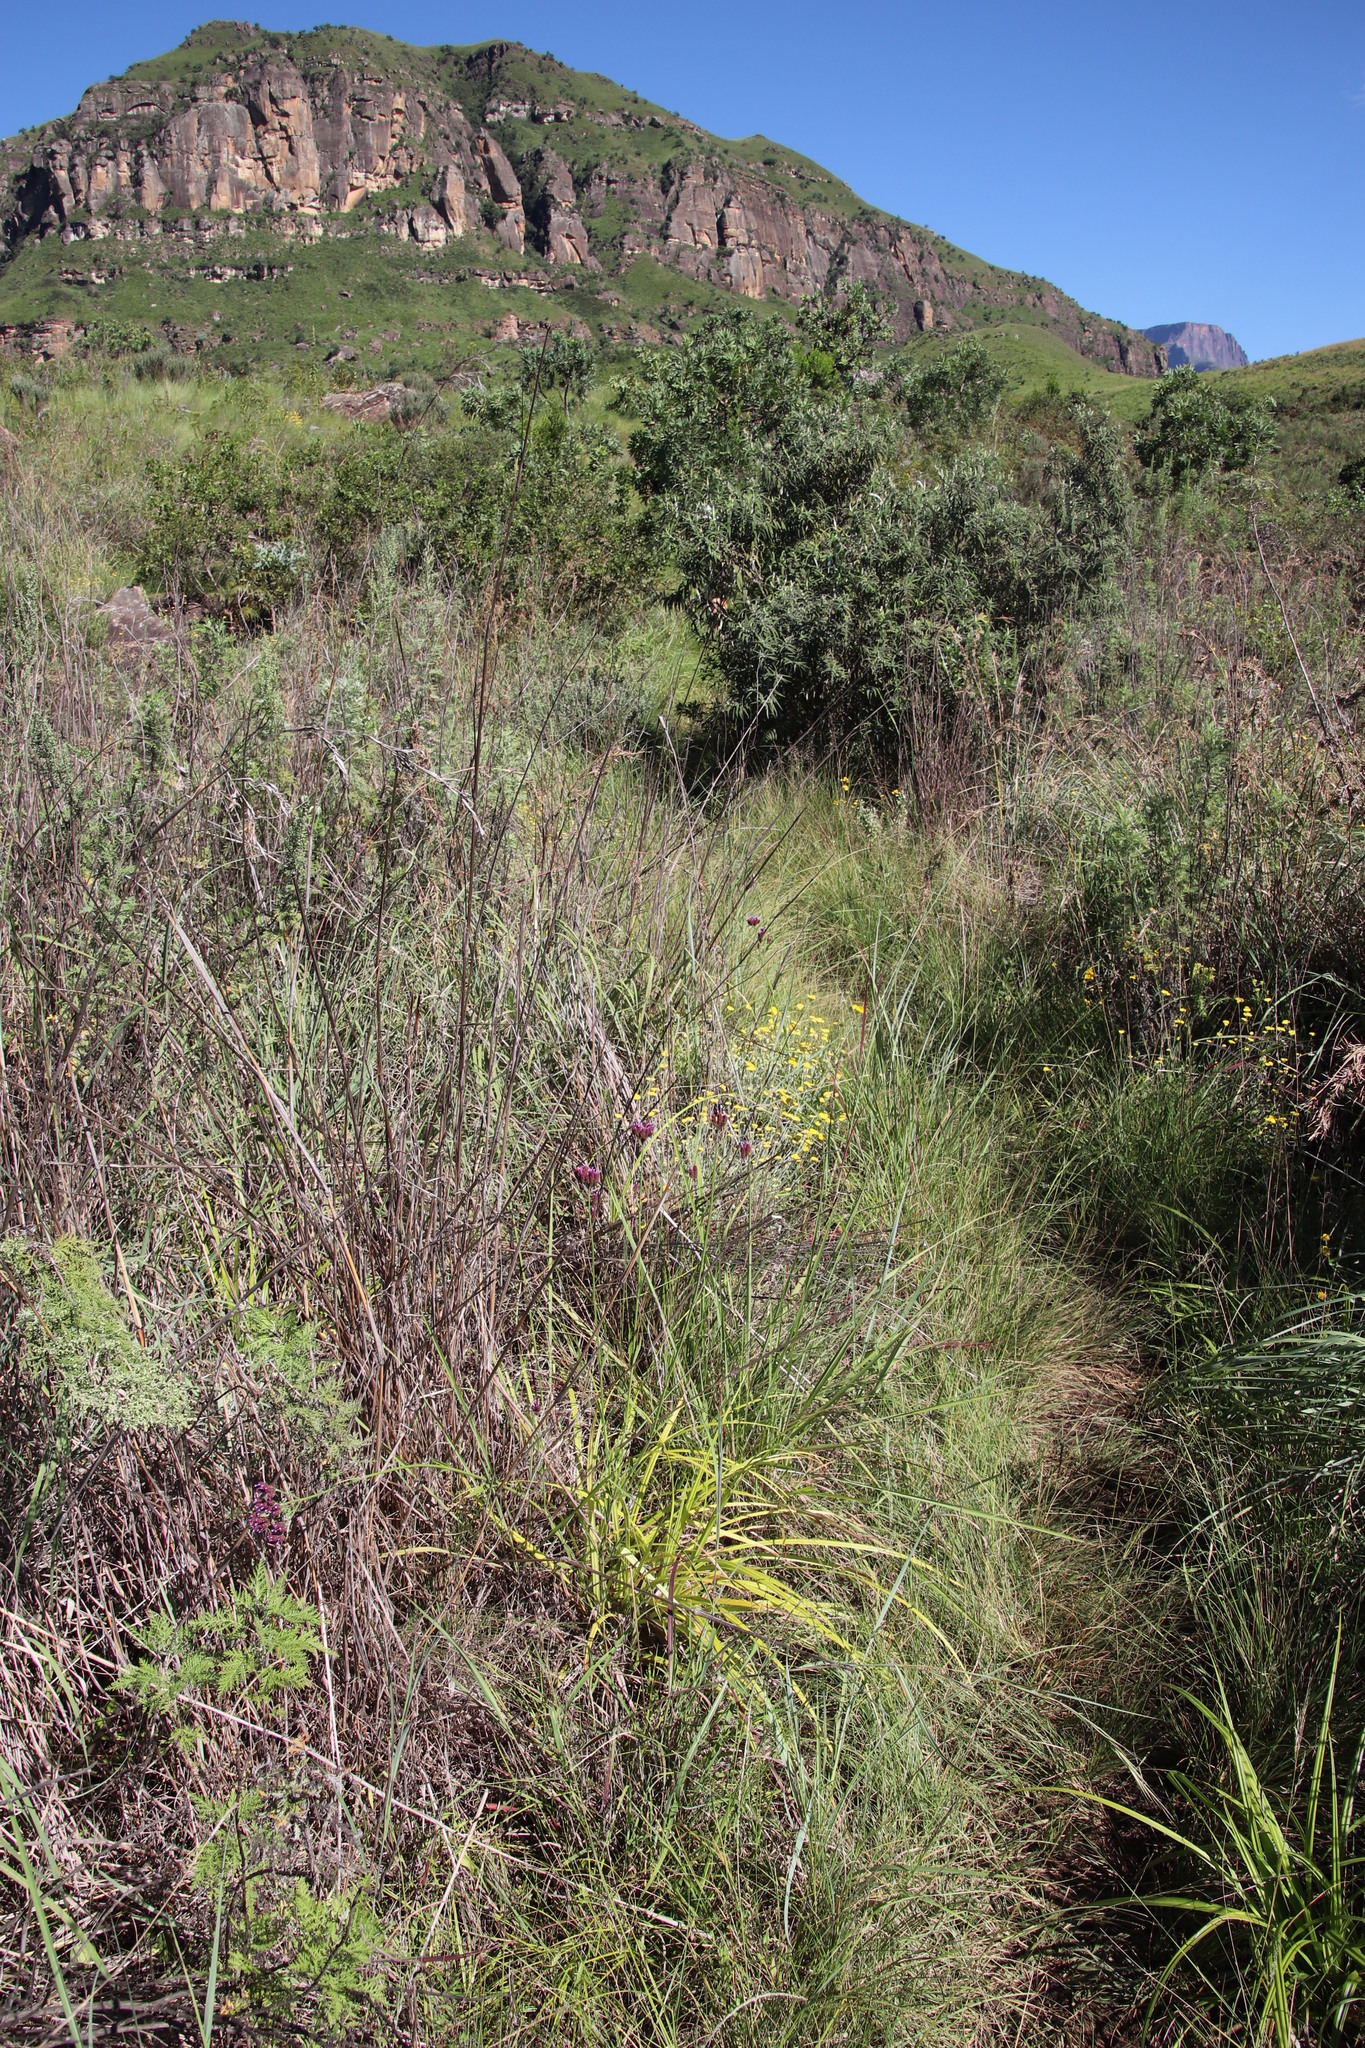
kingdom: Plantae
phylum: Tracheophyta
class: Magnoliopsida
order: Lamiales
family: Verbenaceae
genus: Verbena
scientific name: Verbena bonariensis
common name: Purpletop vervain
